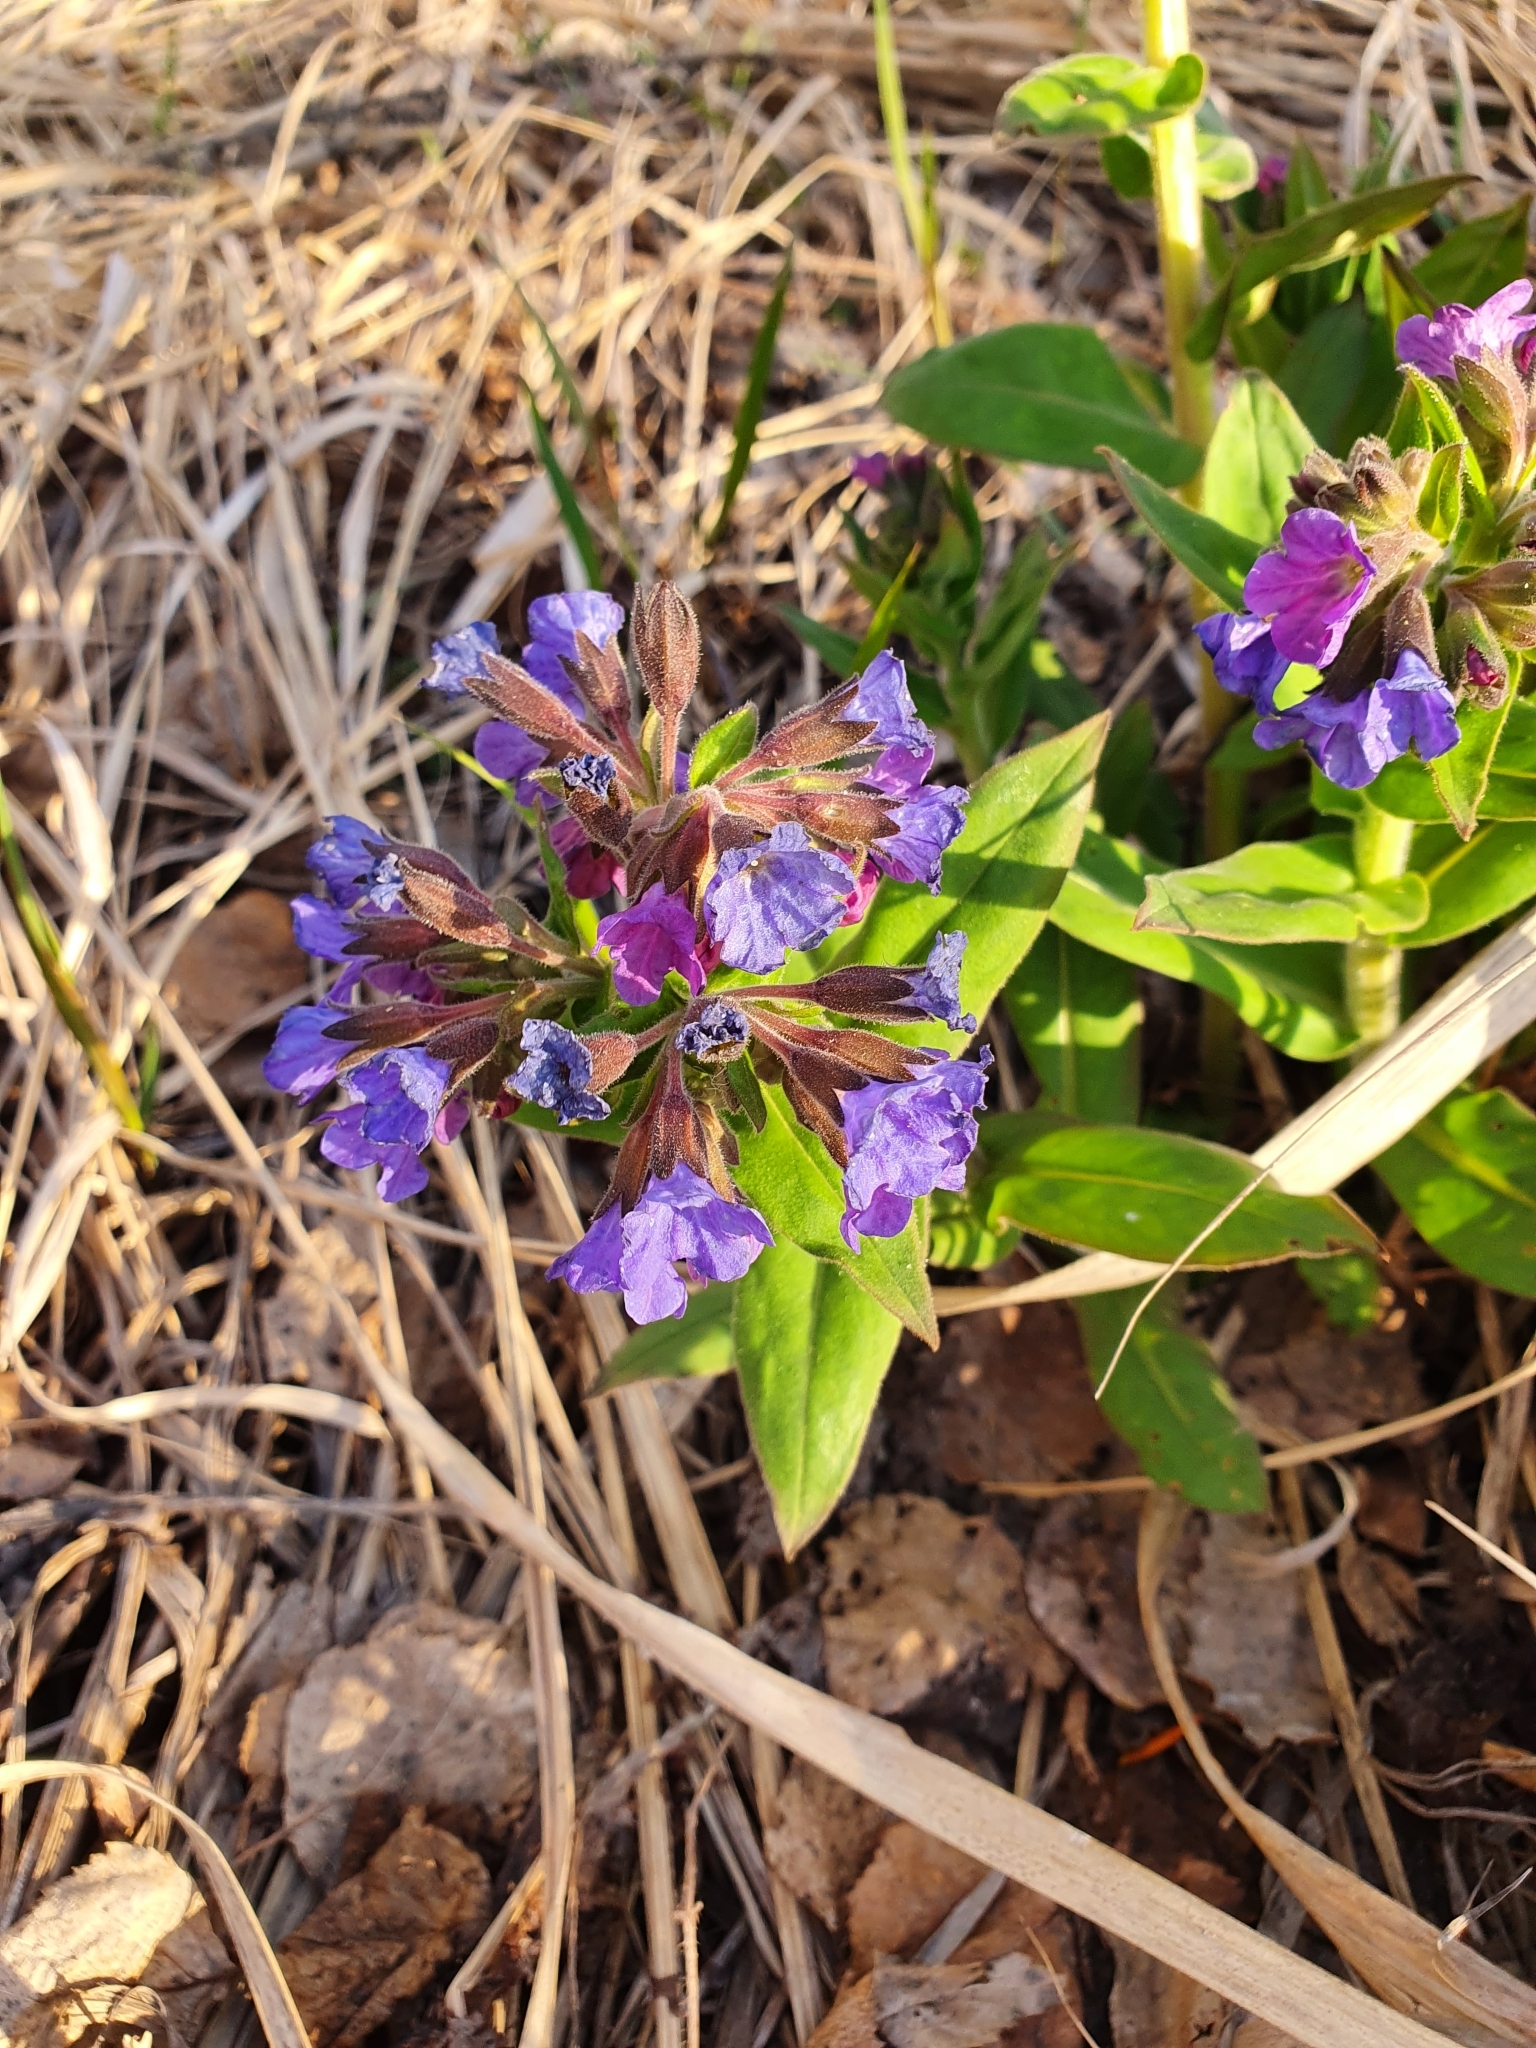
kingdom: Plantae
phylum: Tracheophyta
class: Magnoliopsida
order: Boraginales
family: Boraginaceae
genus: Pulmonaria
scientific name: Pulmonaria mollis
